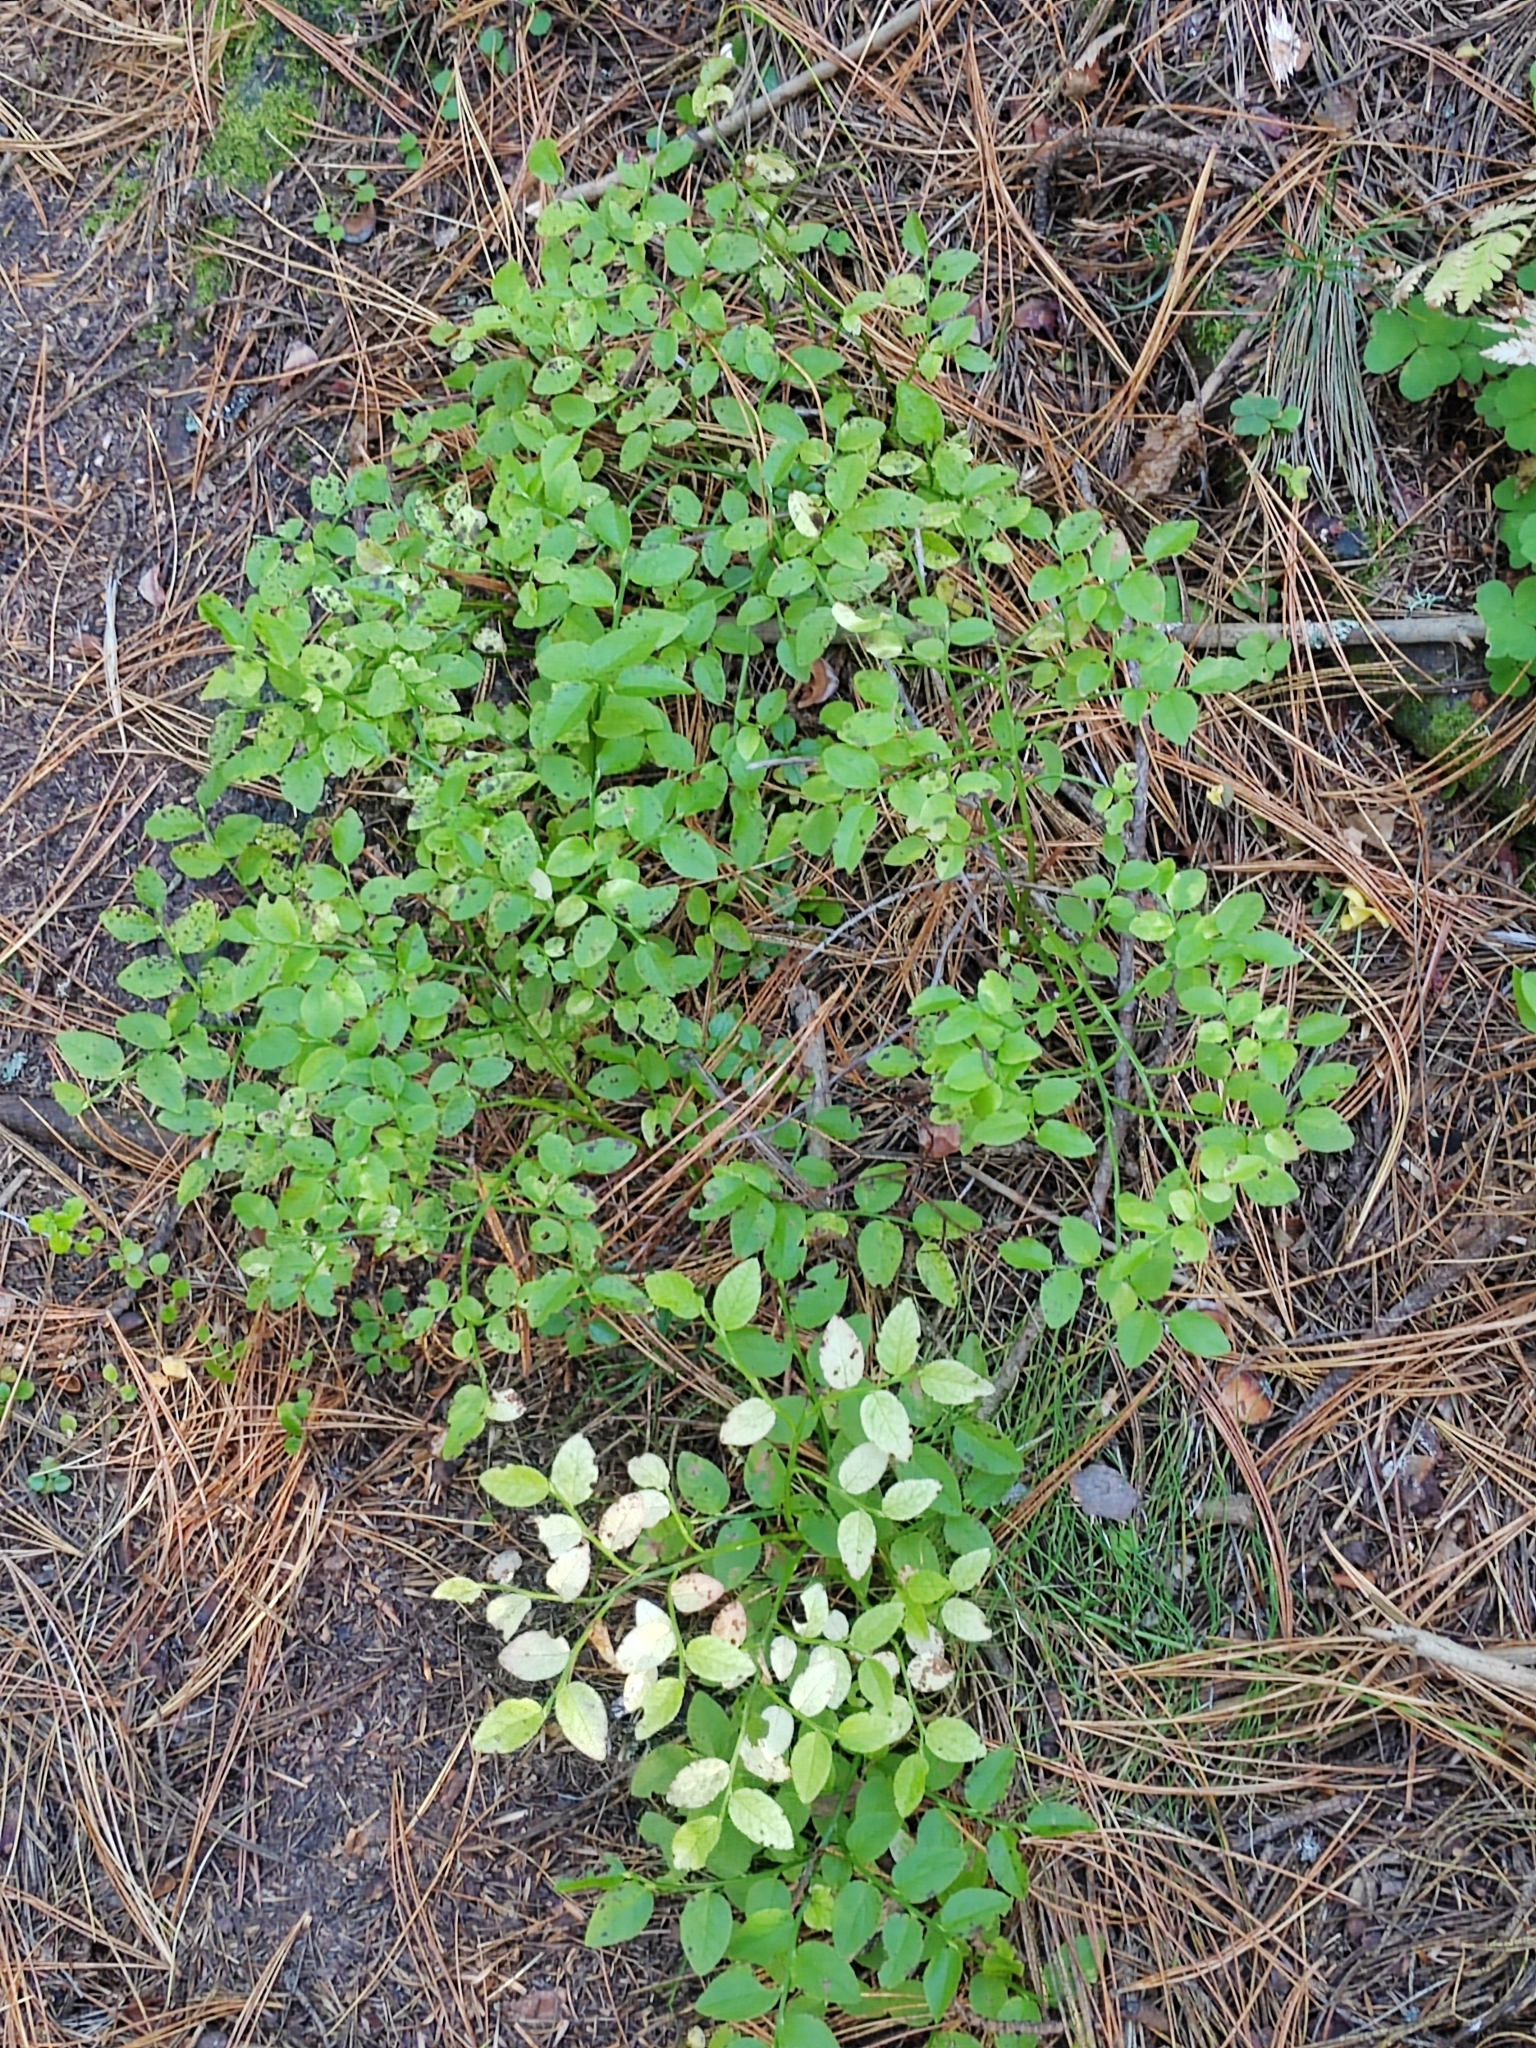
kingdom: Plantae
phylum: Tracheophyta
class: Magnoliopsida
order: Ericales
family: Ericaceae
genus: Vaccinium
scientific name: Vaccinium myrtillus
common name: Bilberry
